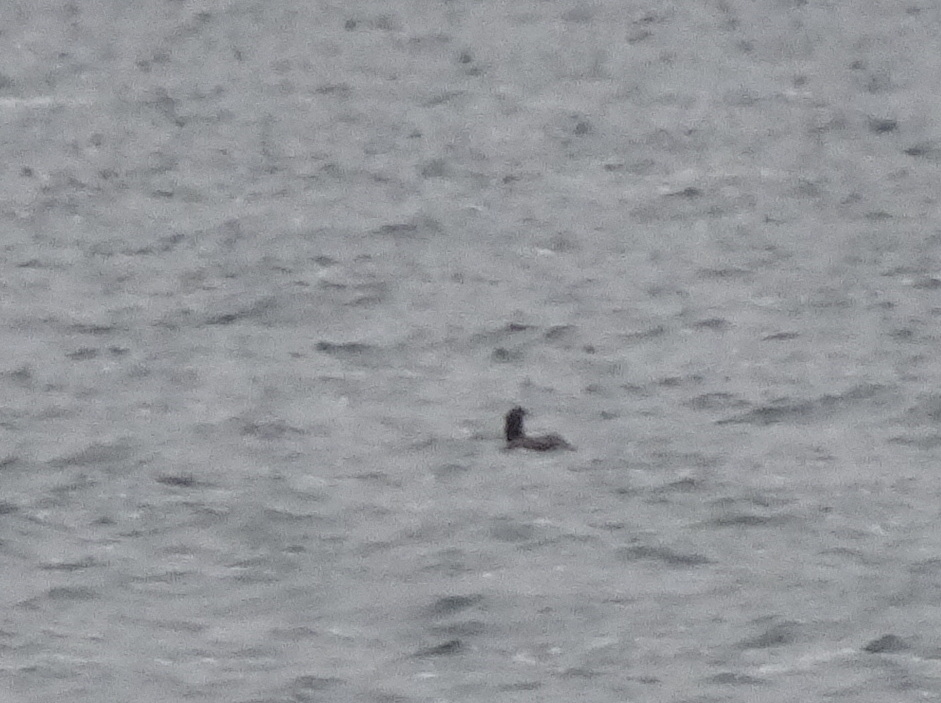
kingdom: Animalia
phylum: Chordata
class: Aves
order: Gaviiformes
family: Gaviidae
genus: Gavia
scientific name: Gavia immer
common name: Common loon
